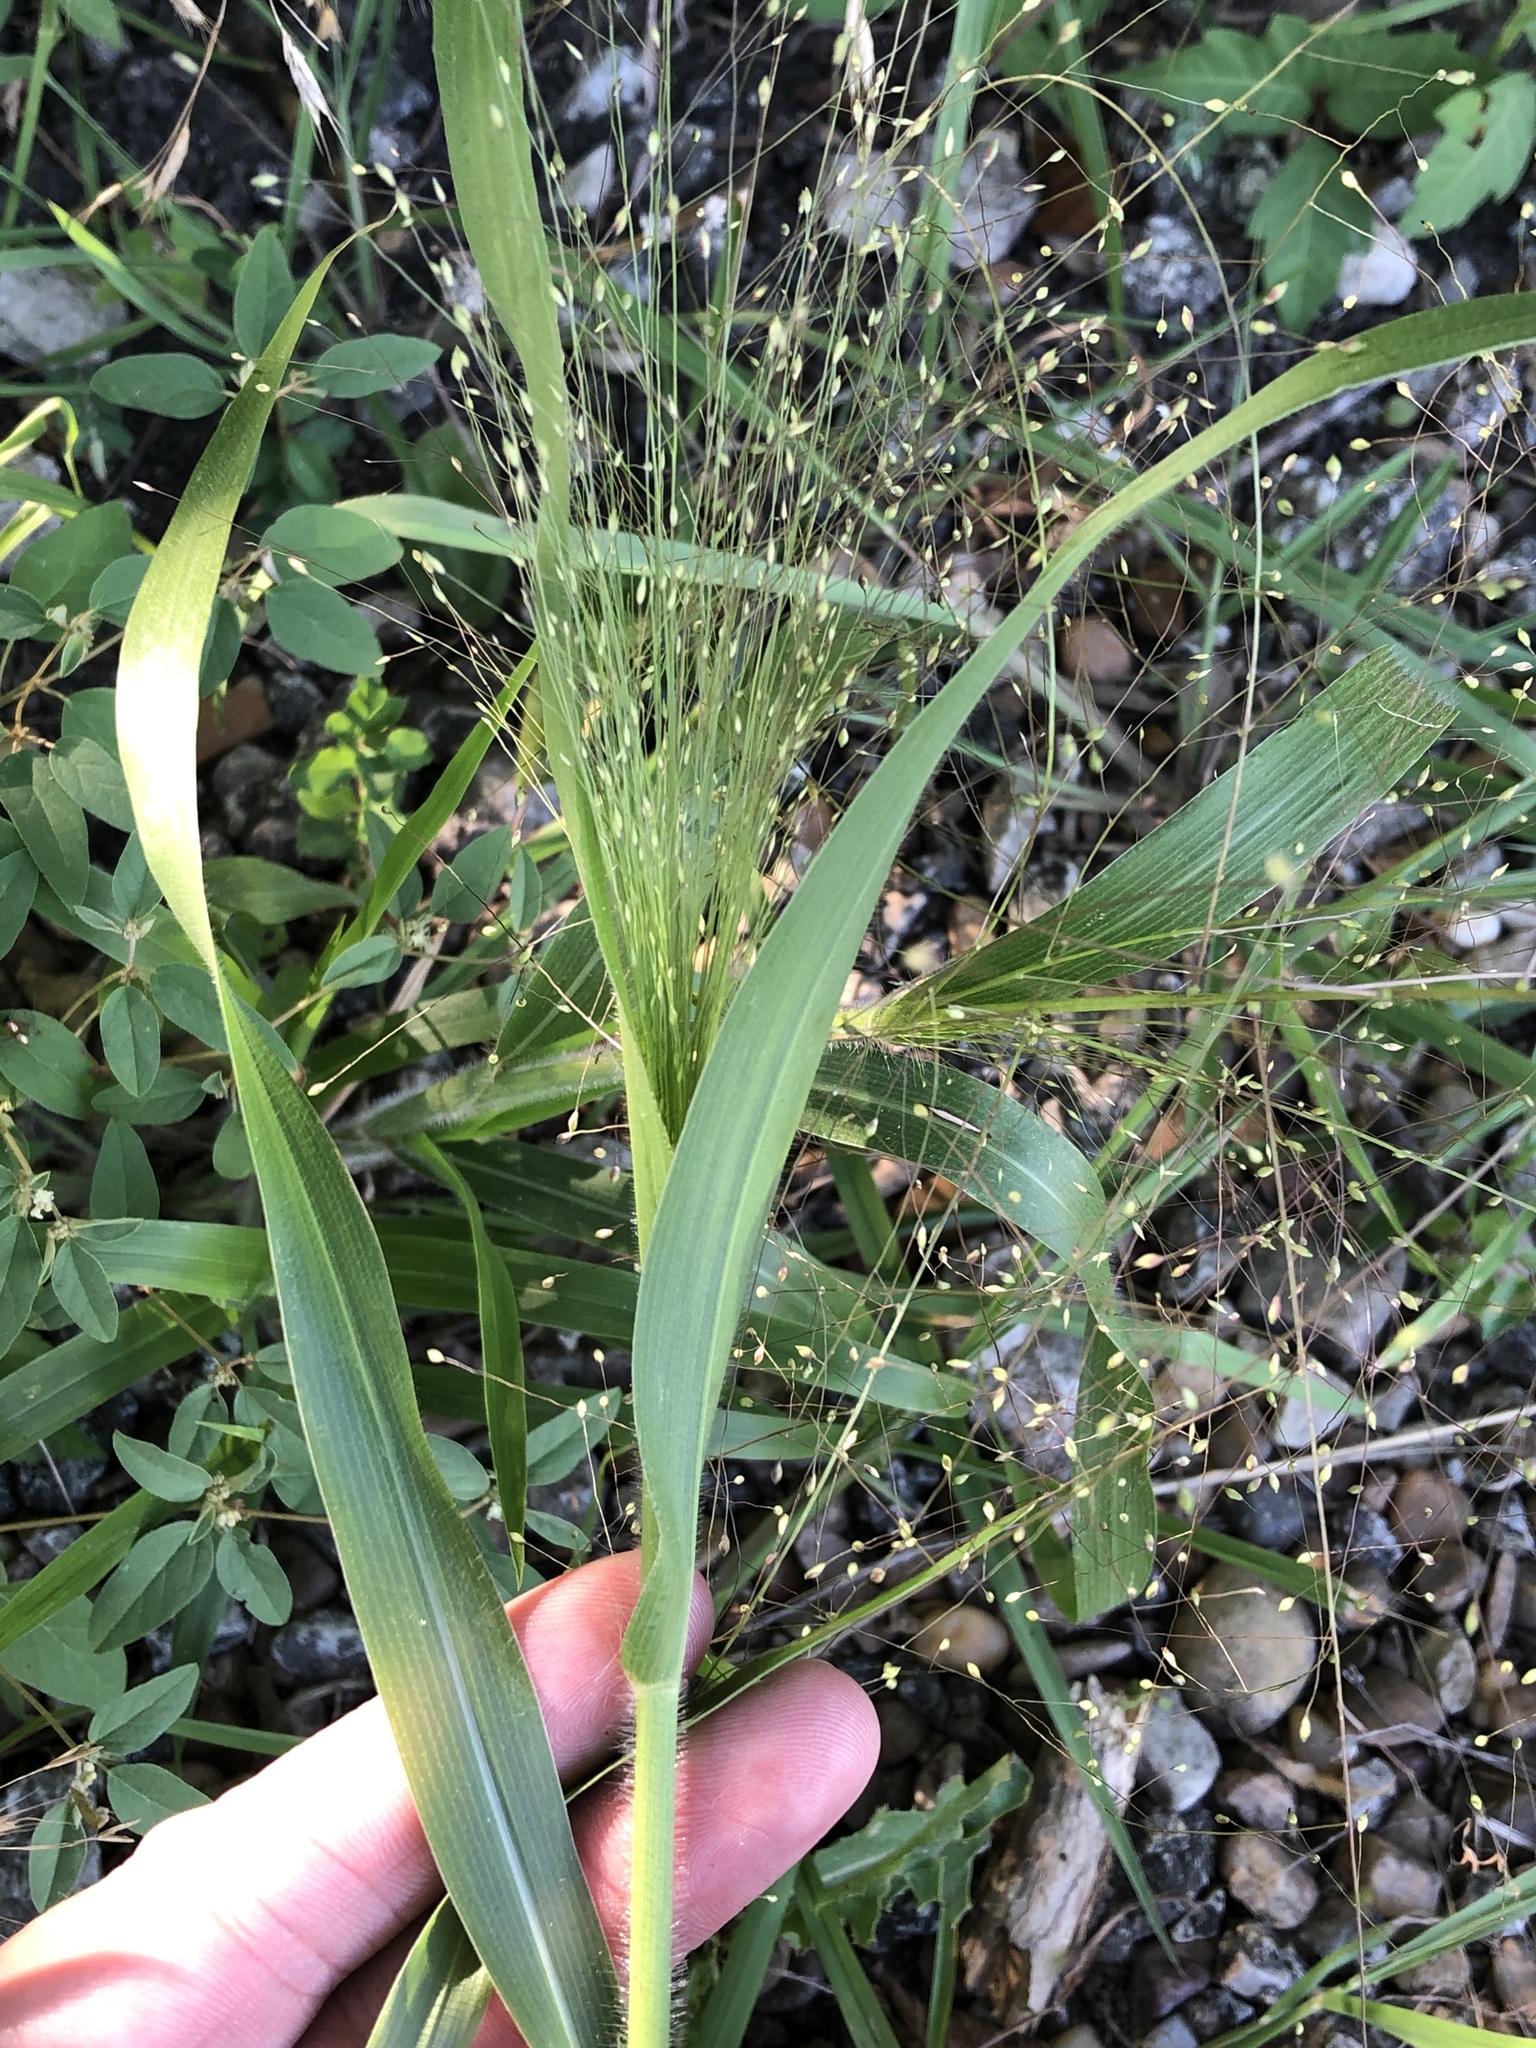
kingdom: Plantae
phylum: Tracheophyta
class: Liliopsida
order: Poales
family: Poaceae
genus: Panicum
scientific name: Panicum capillare
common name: Witch-grass
